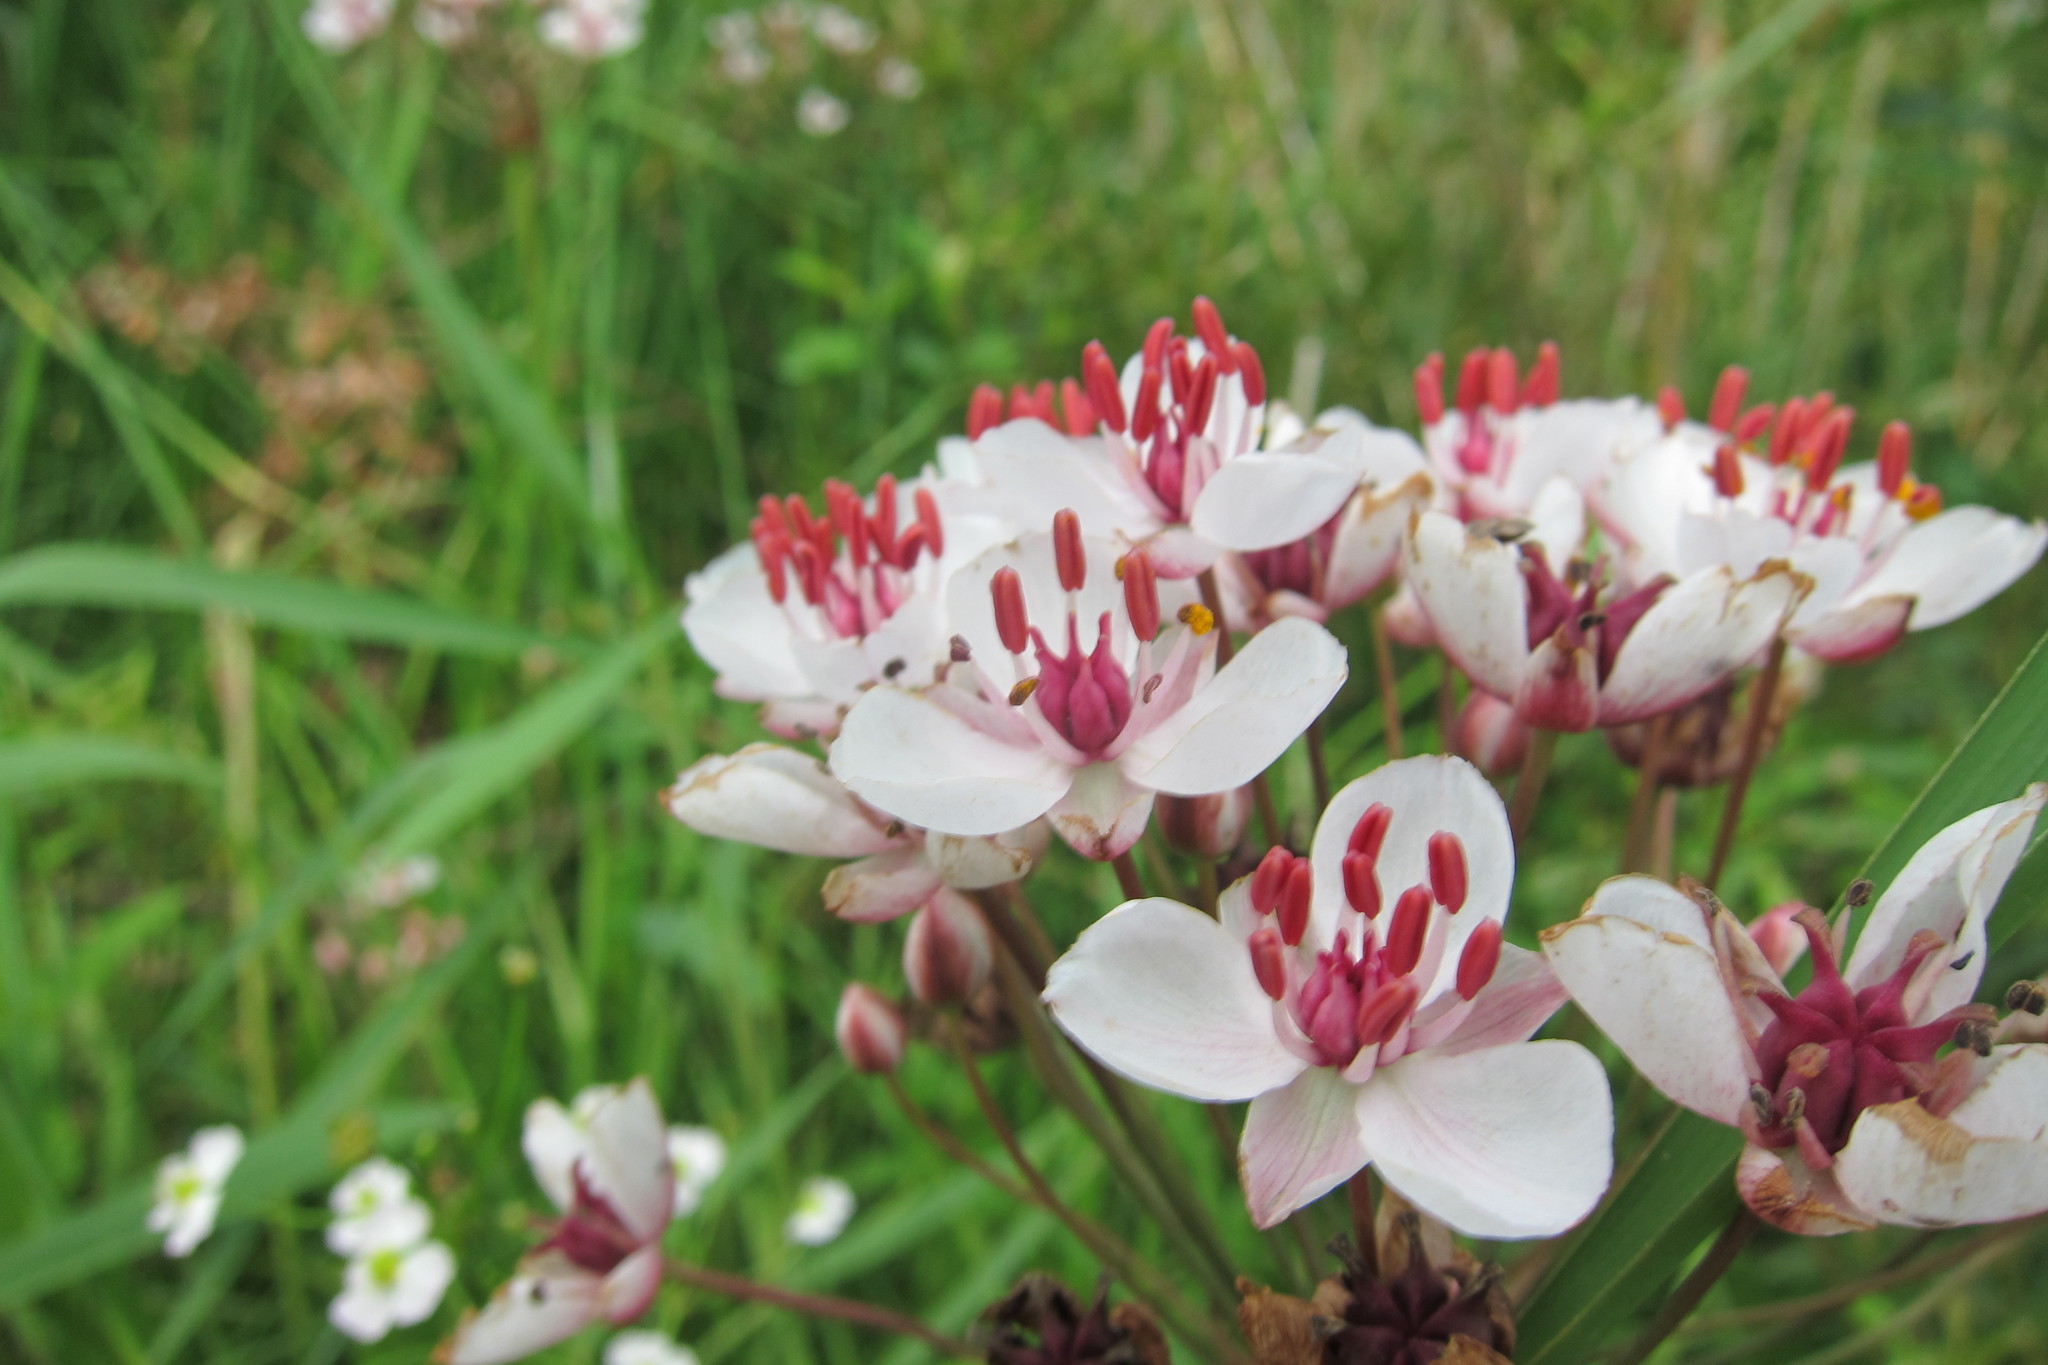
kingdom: Plantae
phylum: Tracheophyta
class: Liliopsida
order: Alismatales
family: Butomaceae
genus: Butomus
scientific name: Butomus umbellatus
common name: Flowering-rush
